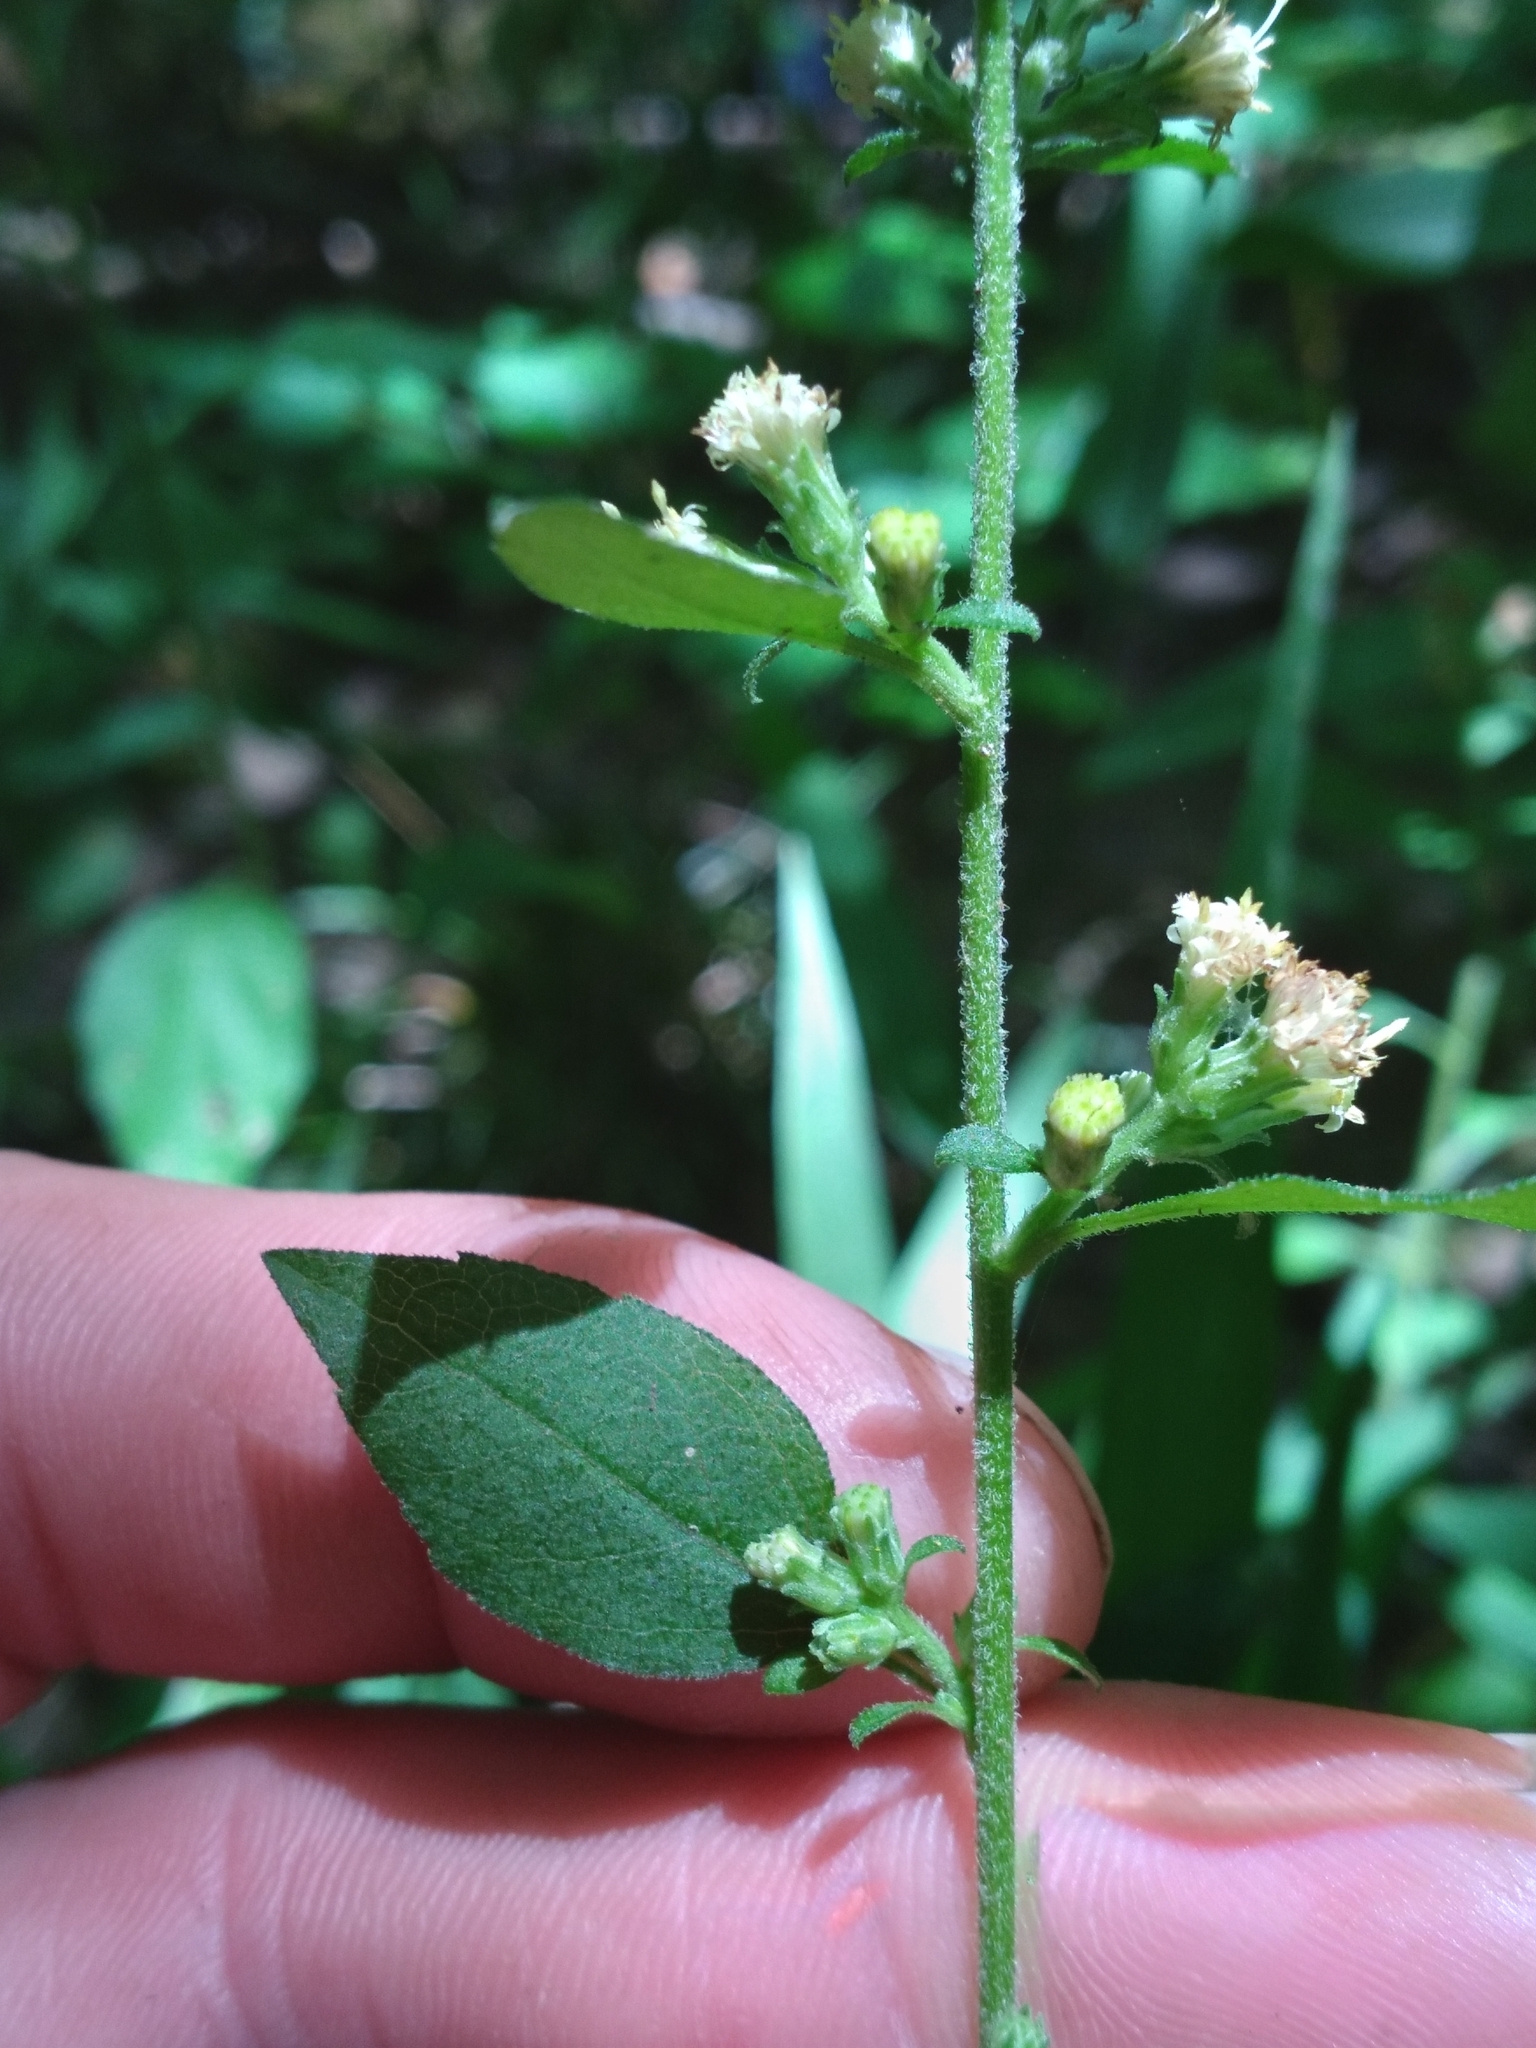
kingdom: Plantae
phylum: Tracheophyta
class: Magnoliopsida
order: Asterales
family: Asteraceae
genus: Solidago
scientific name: Solidago discoidea
